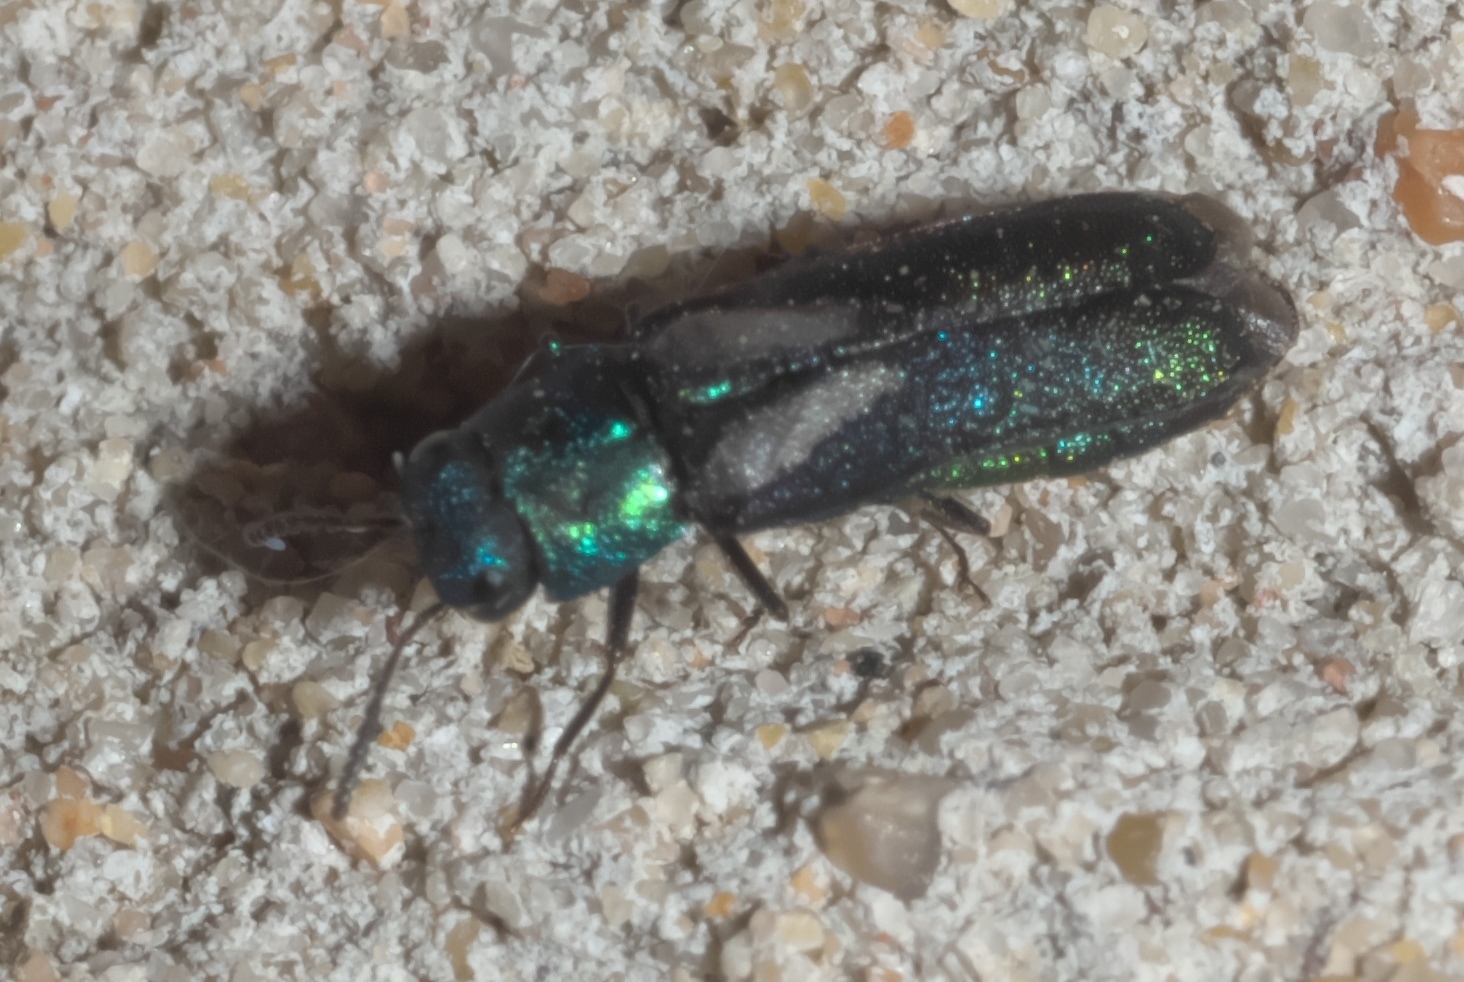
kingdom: Animalia
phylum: Arthropoda
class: Insecta
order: Coleoptera
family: Buprestidae
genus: Xenorhipis
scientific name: Xenorhipis brendeli
